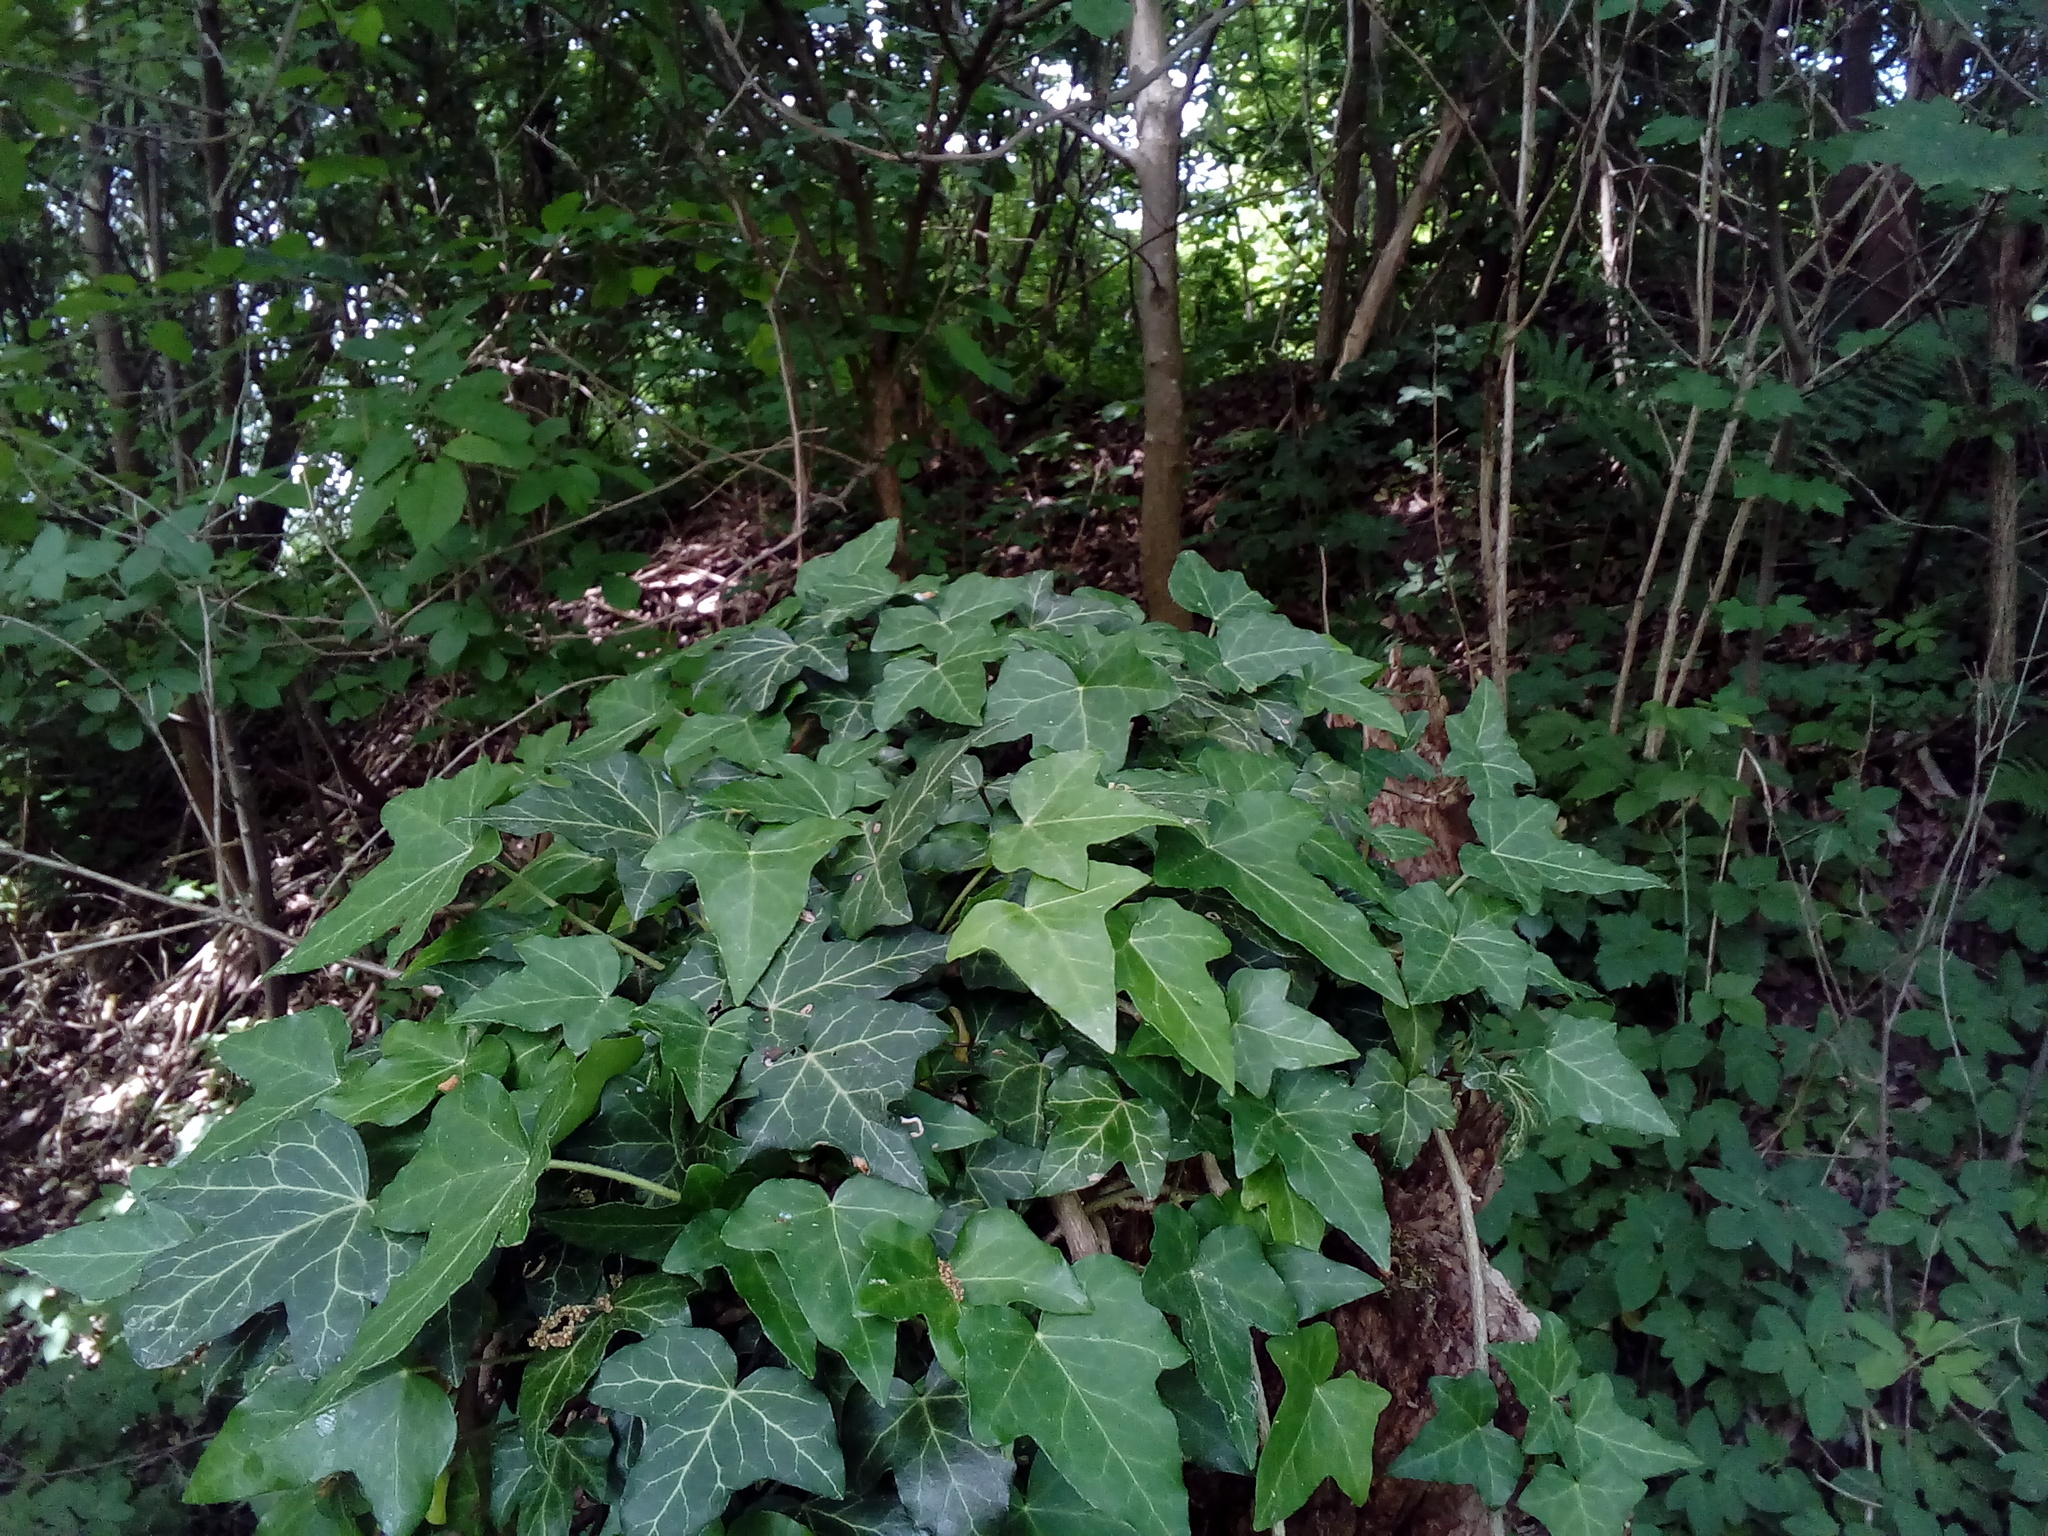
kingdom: Plantae
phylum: Tracheophyta
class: Magnoliopsida
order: Apiales
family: Araliaceae
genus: Hedera
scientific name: Hedera helix
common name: Ivy
